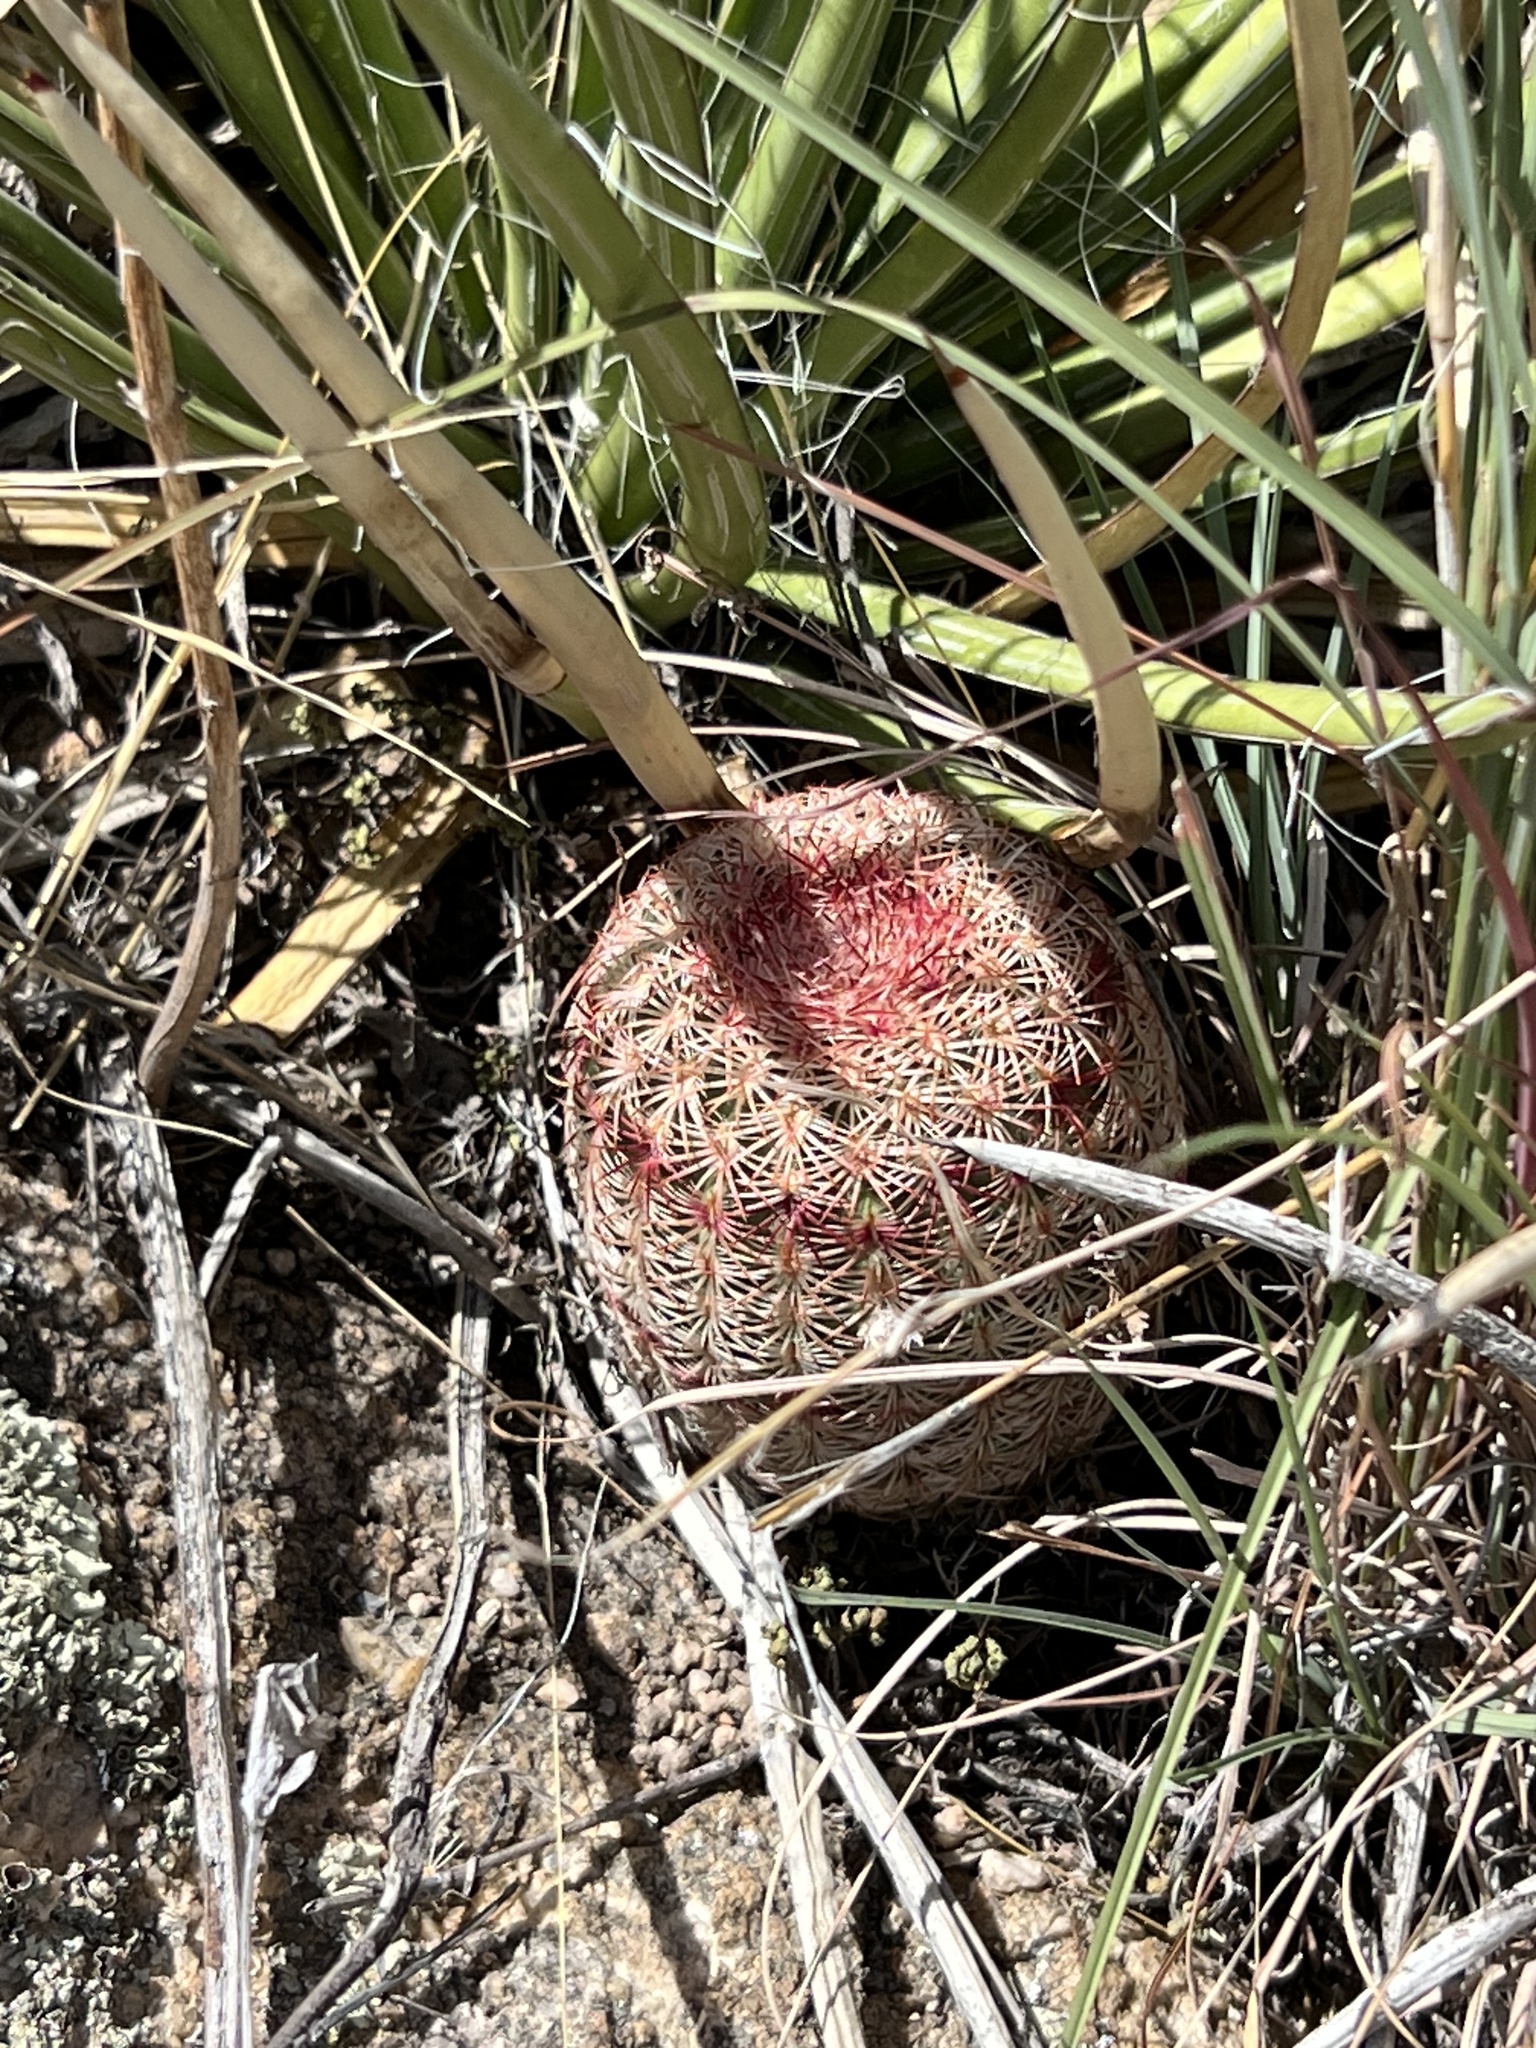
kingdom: Plantae
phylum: Tracheophyta
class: Magnoliopsida
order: Caryophyllales
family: Cactaceae
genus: Echinocereus
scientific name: Echinocereus rigidissimus
